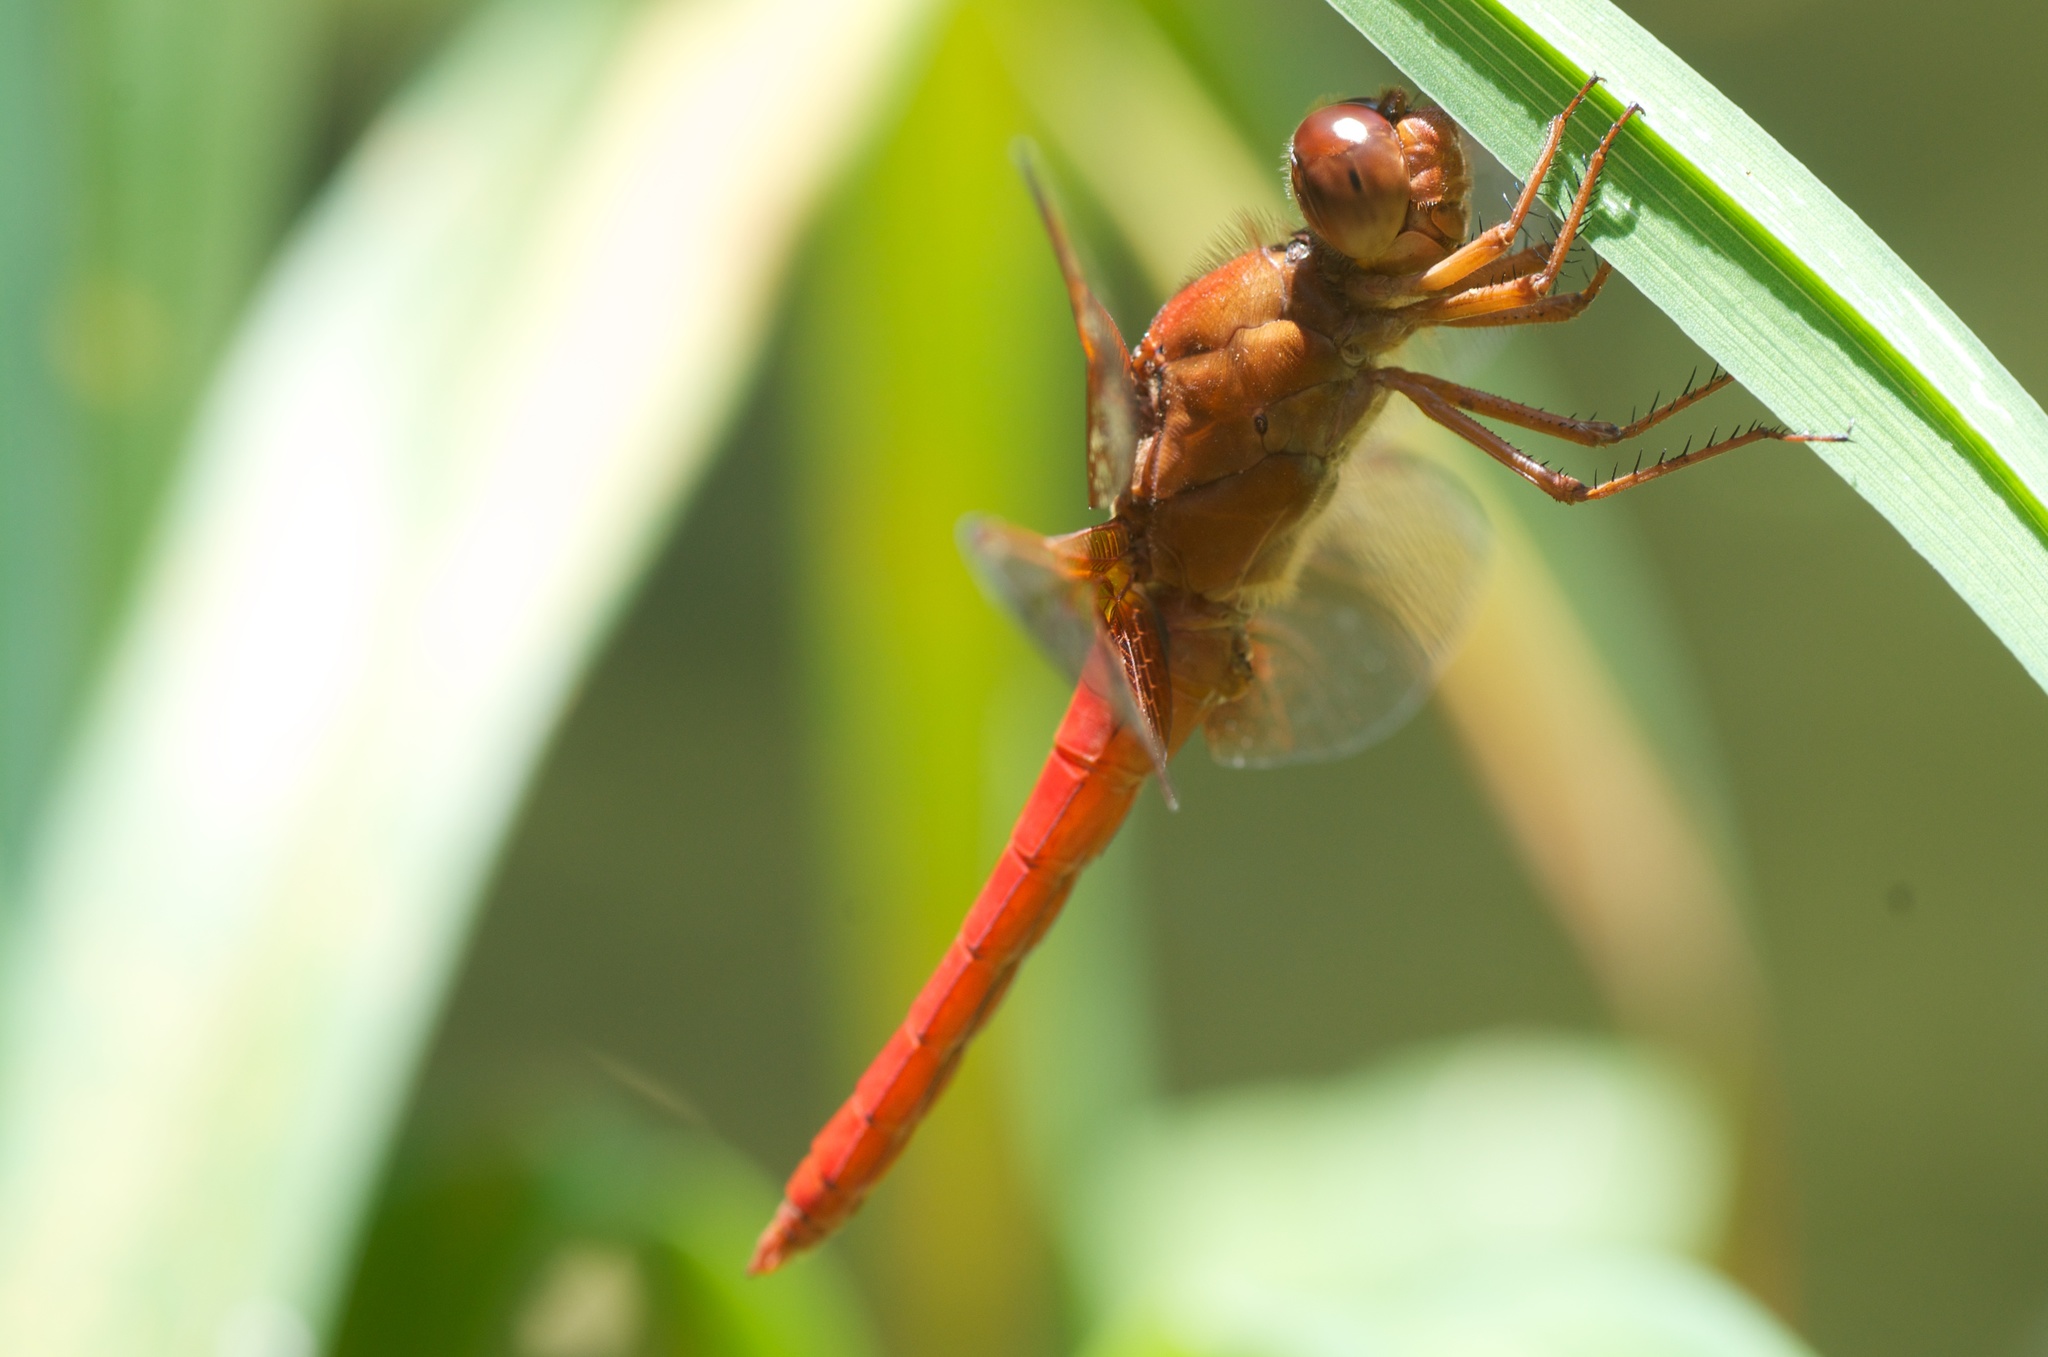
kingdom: Animalia
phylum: Arthropoda
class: Insecta
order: Odonata
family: Libellulidae
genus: Libellula
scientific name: Libellula croceipennis
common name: Neon skimmer
